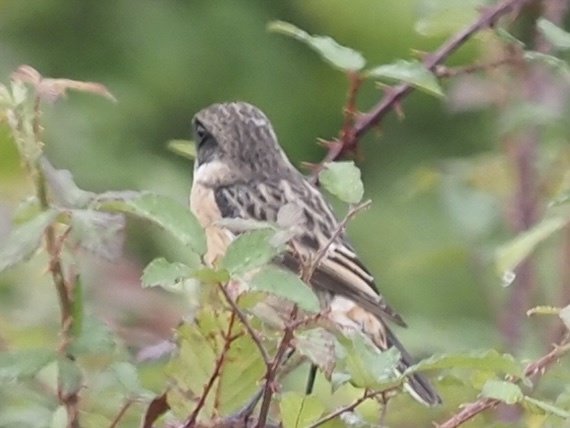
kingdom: Animalia
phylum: Chordata
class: Aves
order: Passeriformes
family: Muscicapidae
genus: Saxicola
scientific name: Saxicola rubicola
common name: European stonechat
